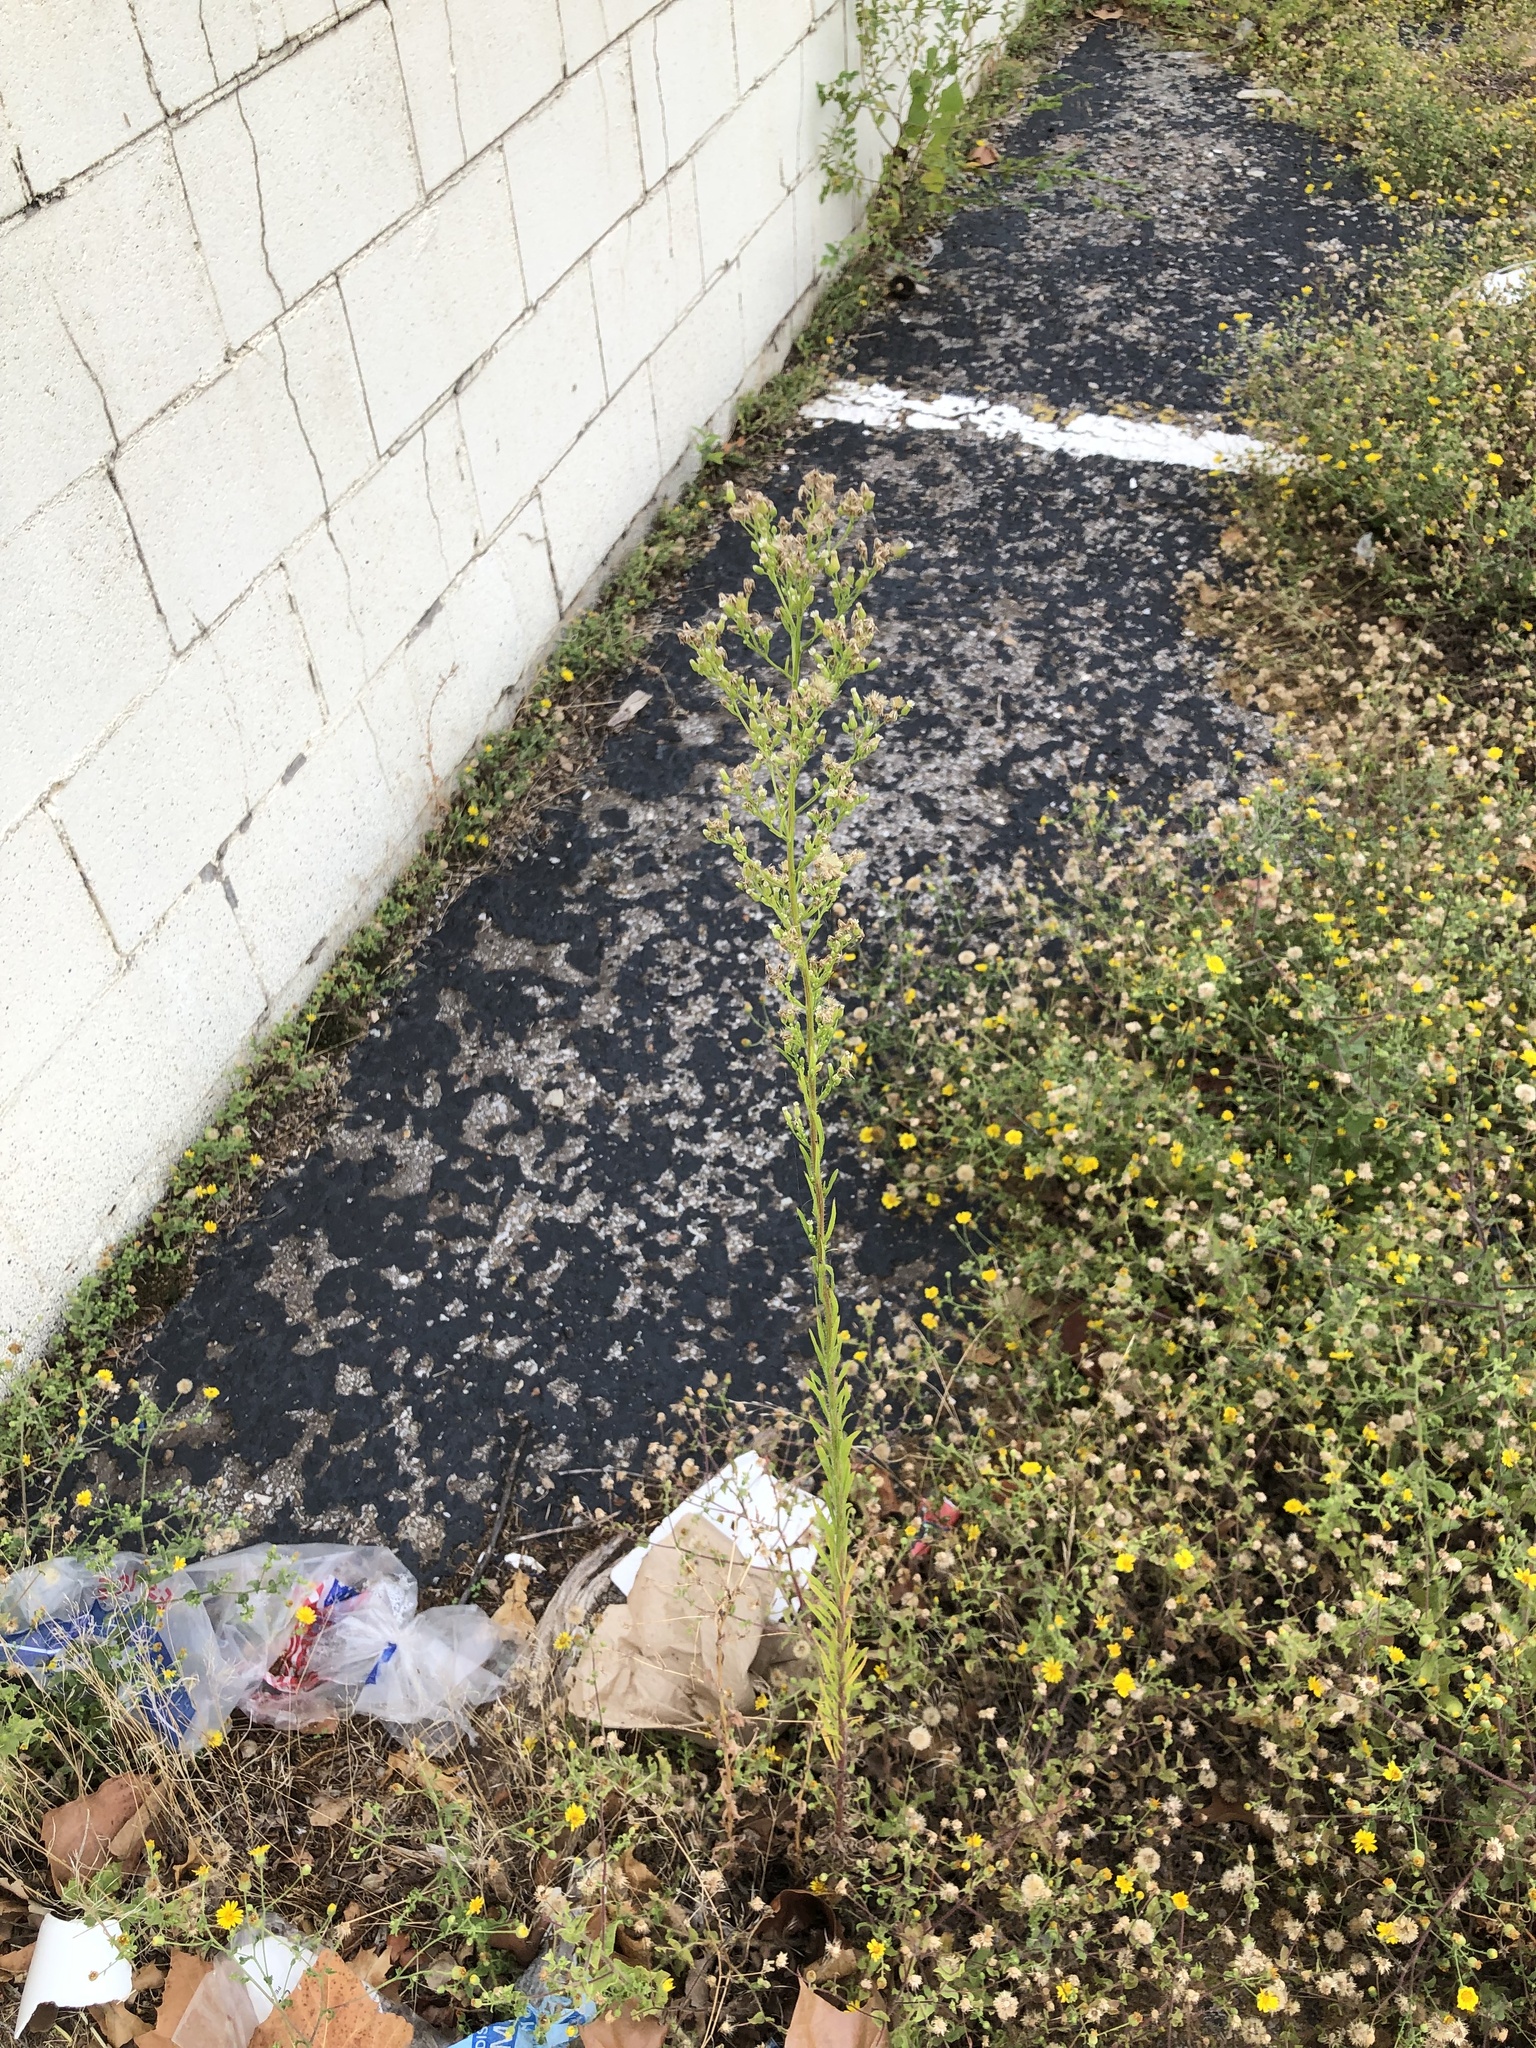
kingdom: Plantae
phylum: Tracheophyta
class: Magnoliopsida
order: Asterales
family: Asteraceae
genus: Erigeron
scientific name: Erigeron canadensis
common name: Canadian fleabane
